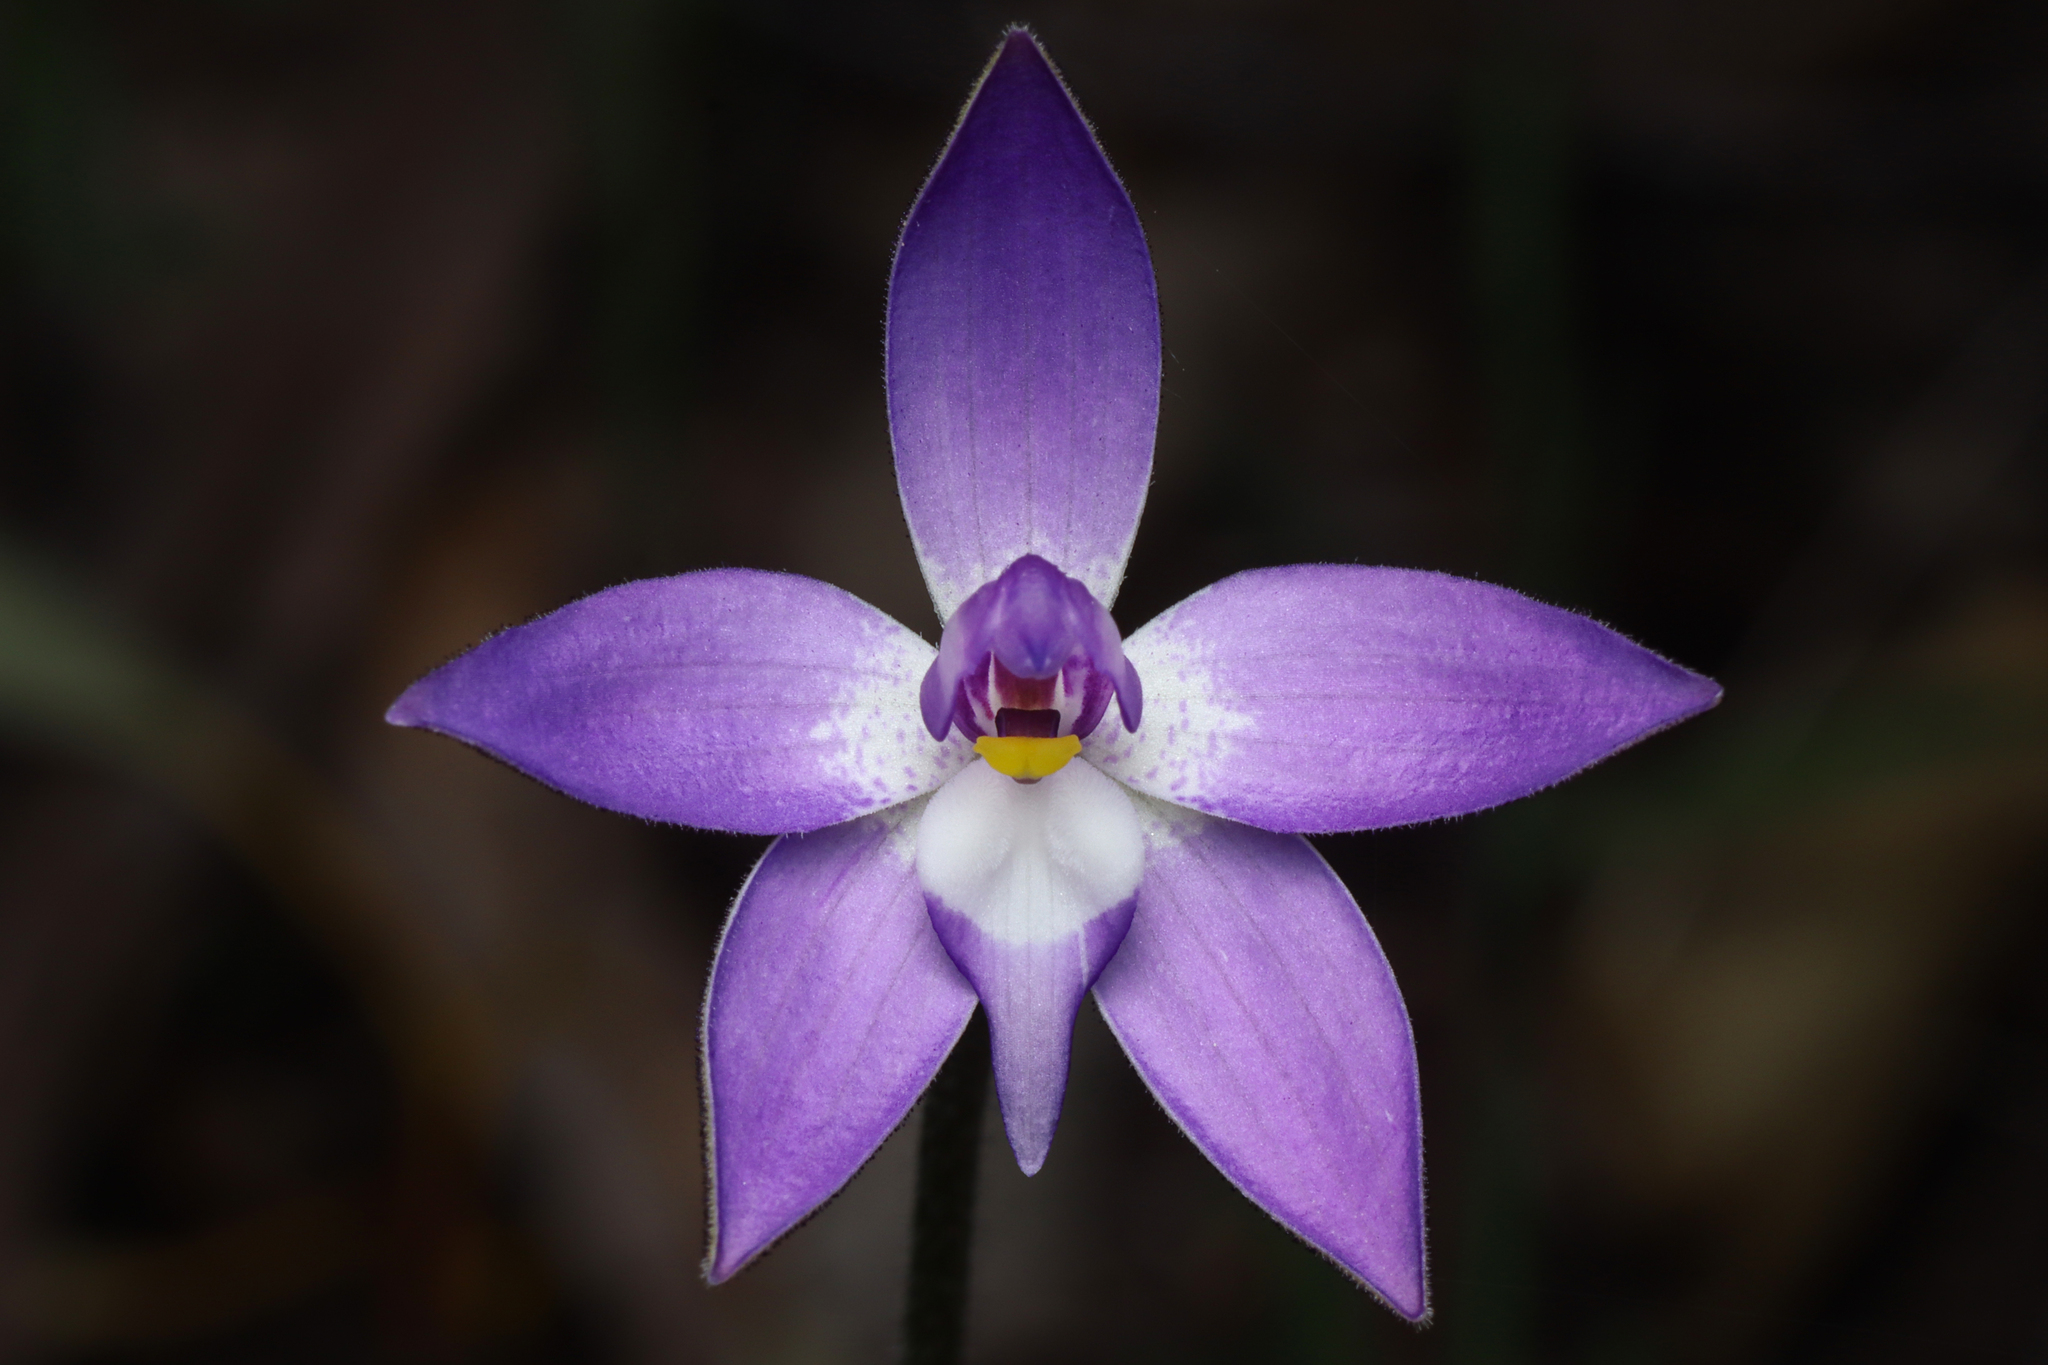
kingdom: Plantae
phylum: Tracheophyta
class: Liliopsida
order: Asparagales
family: Orchidaceae
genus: Caladenia
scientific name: Caladenia major
